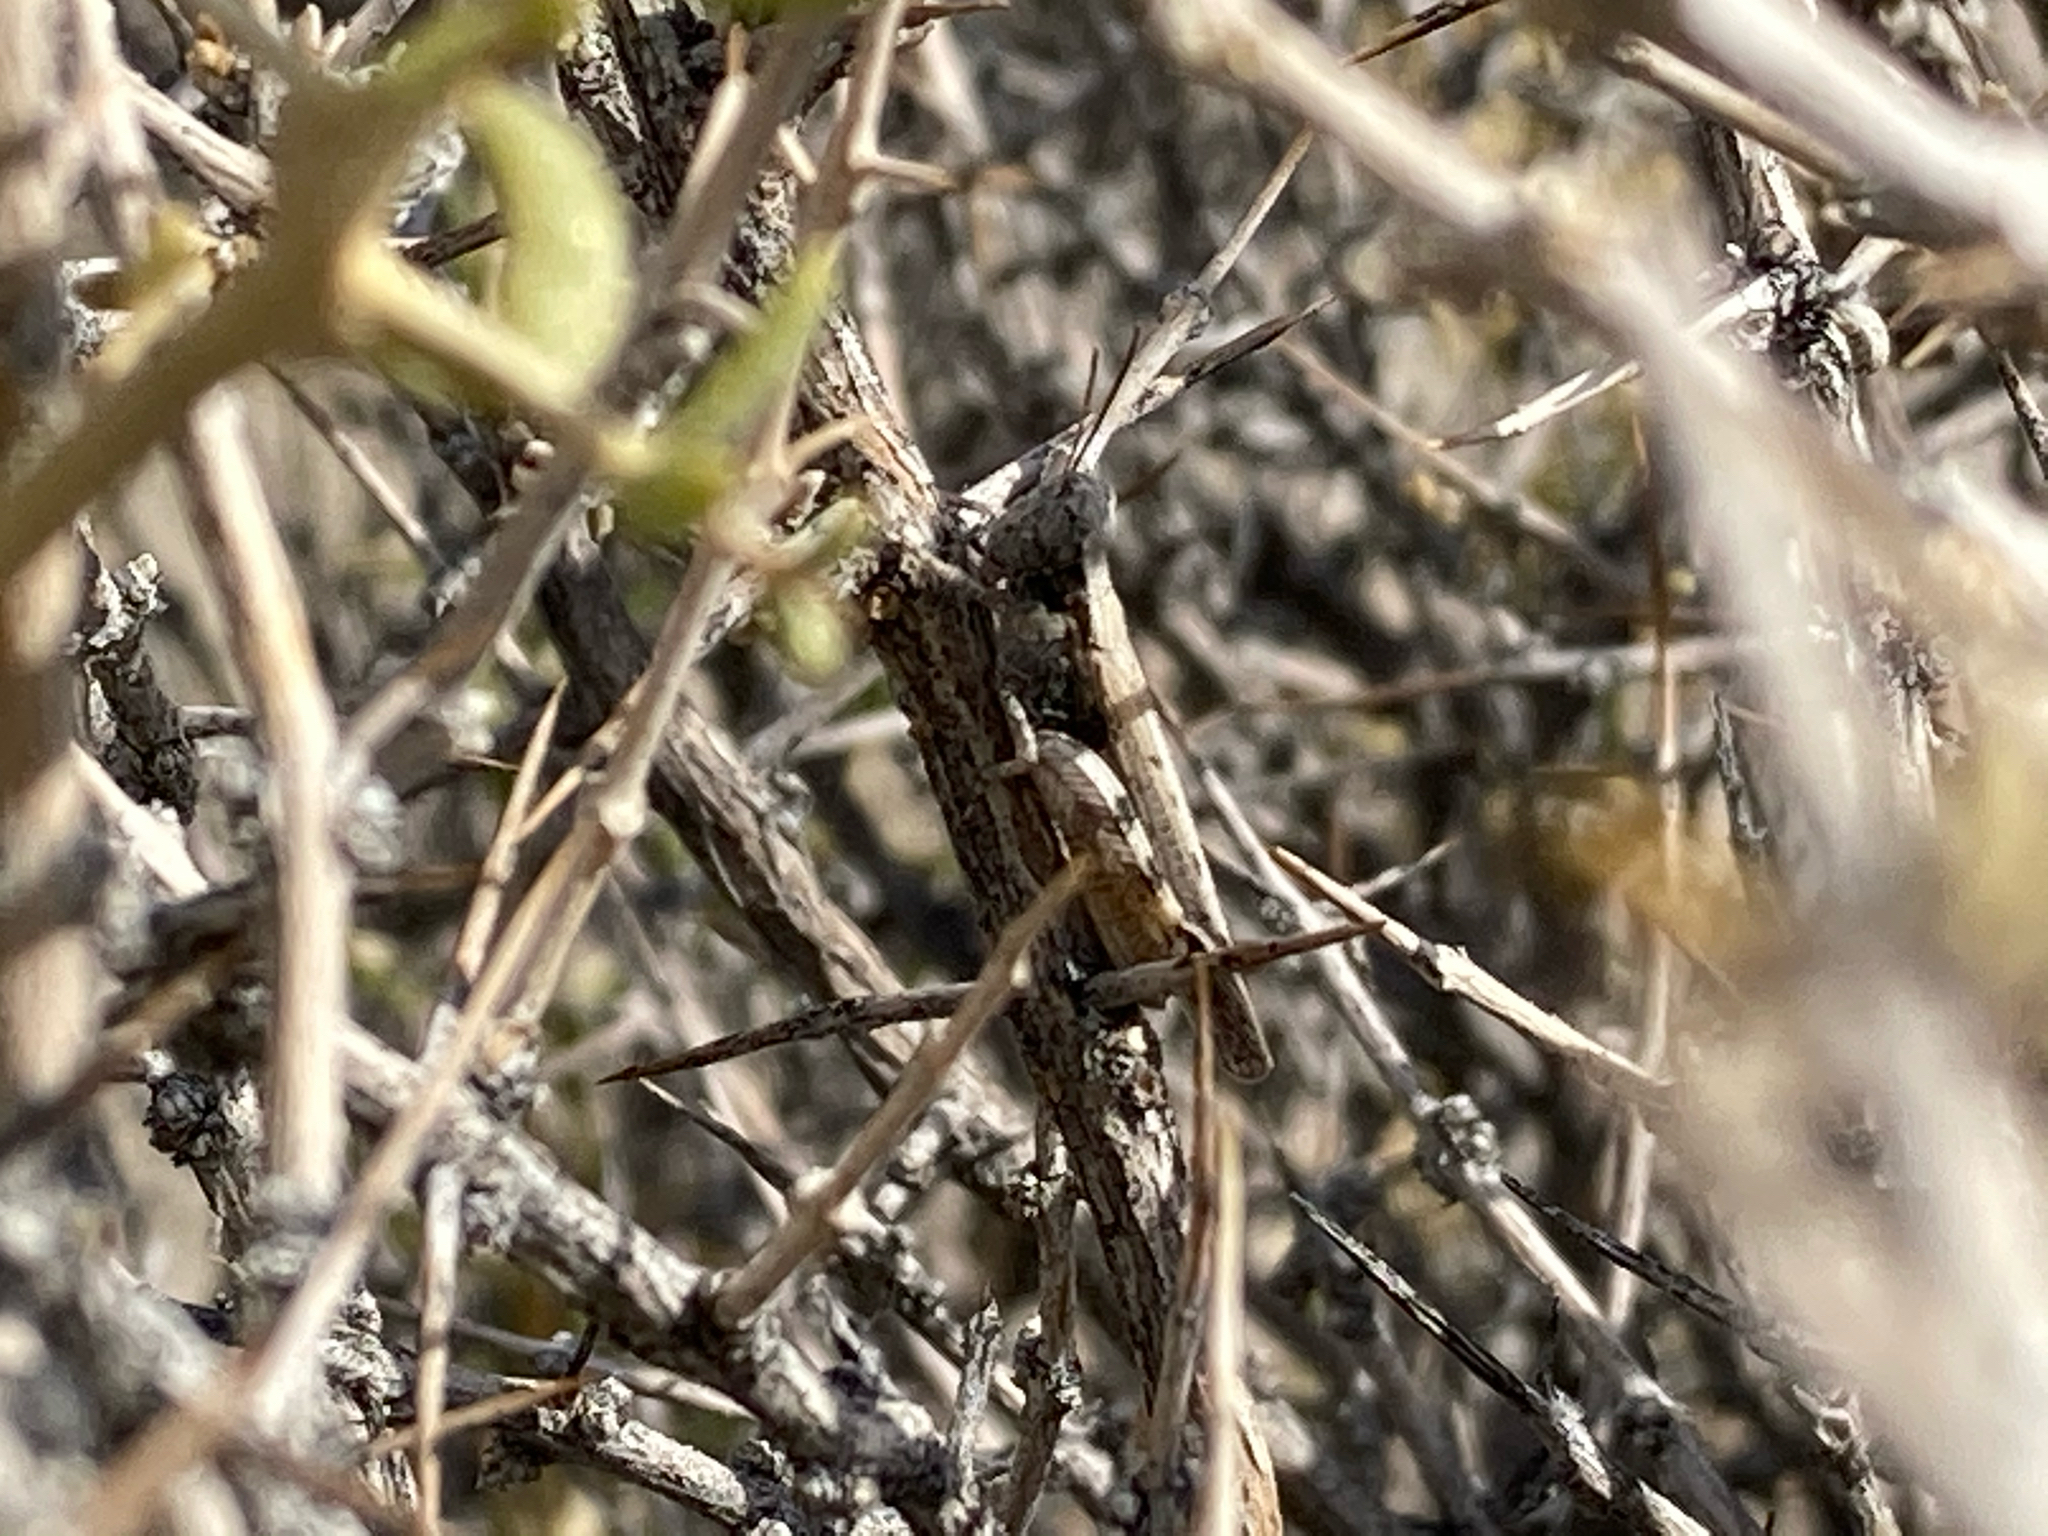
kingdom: Animalia
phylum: Arthropoda
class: Insecta
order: Orthoptera
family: Acrididae
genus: Ligurotettix
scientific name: Ligurotettix coquilletti
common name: Desert clicker grasshopper
